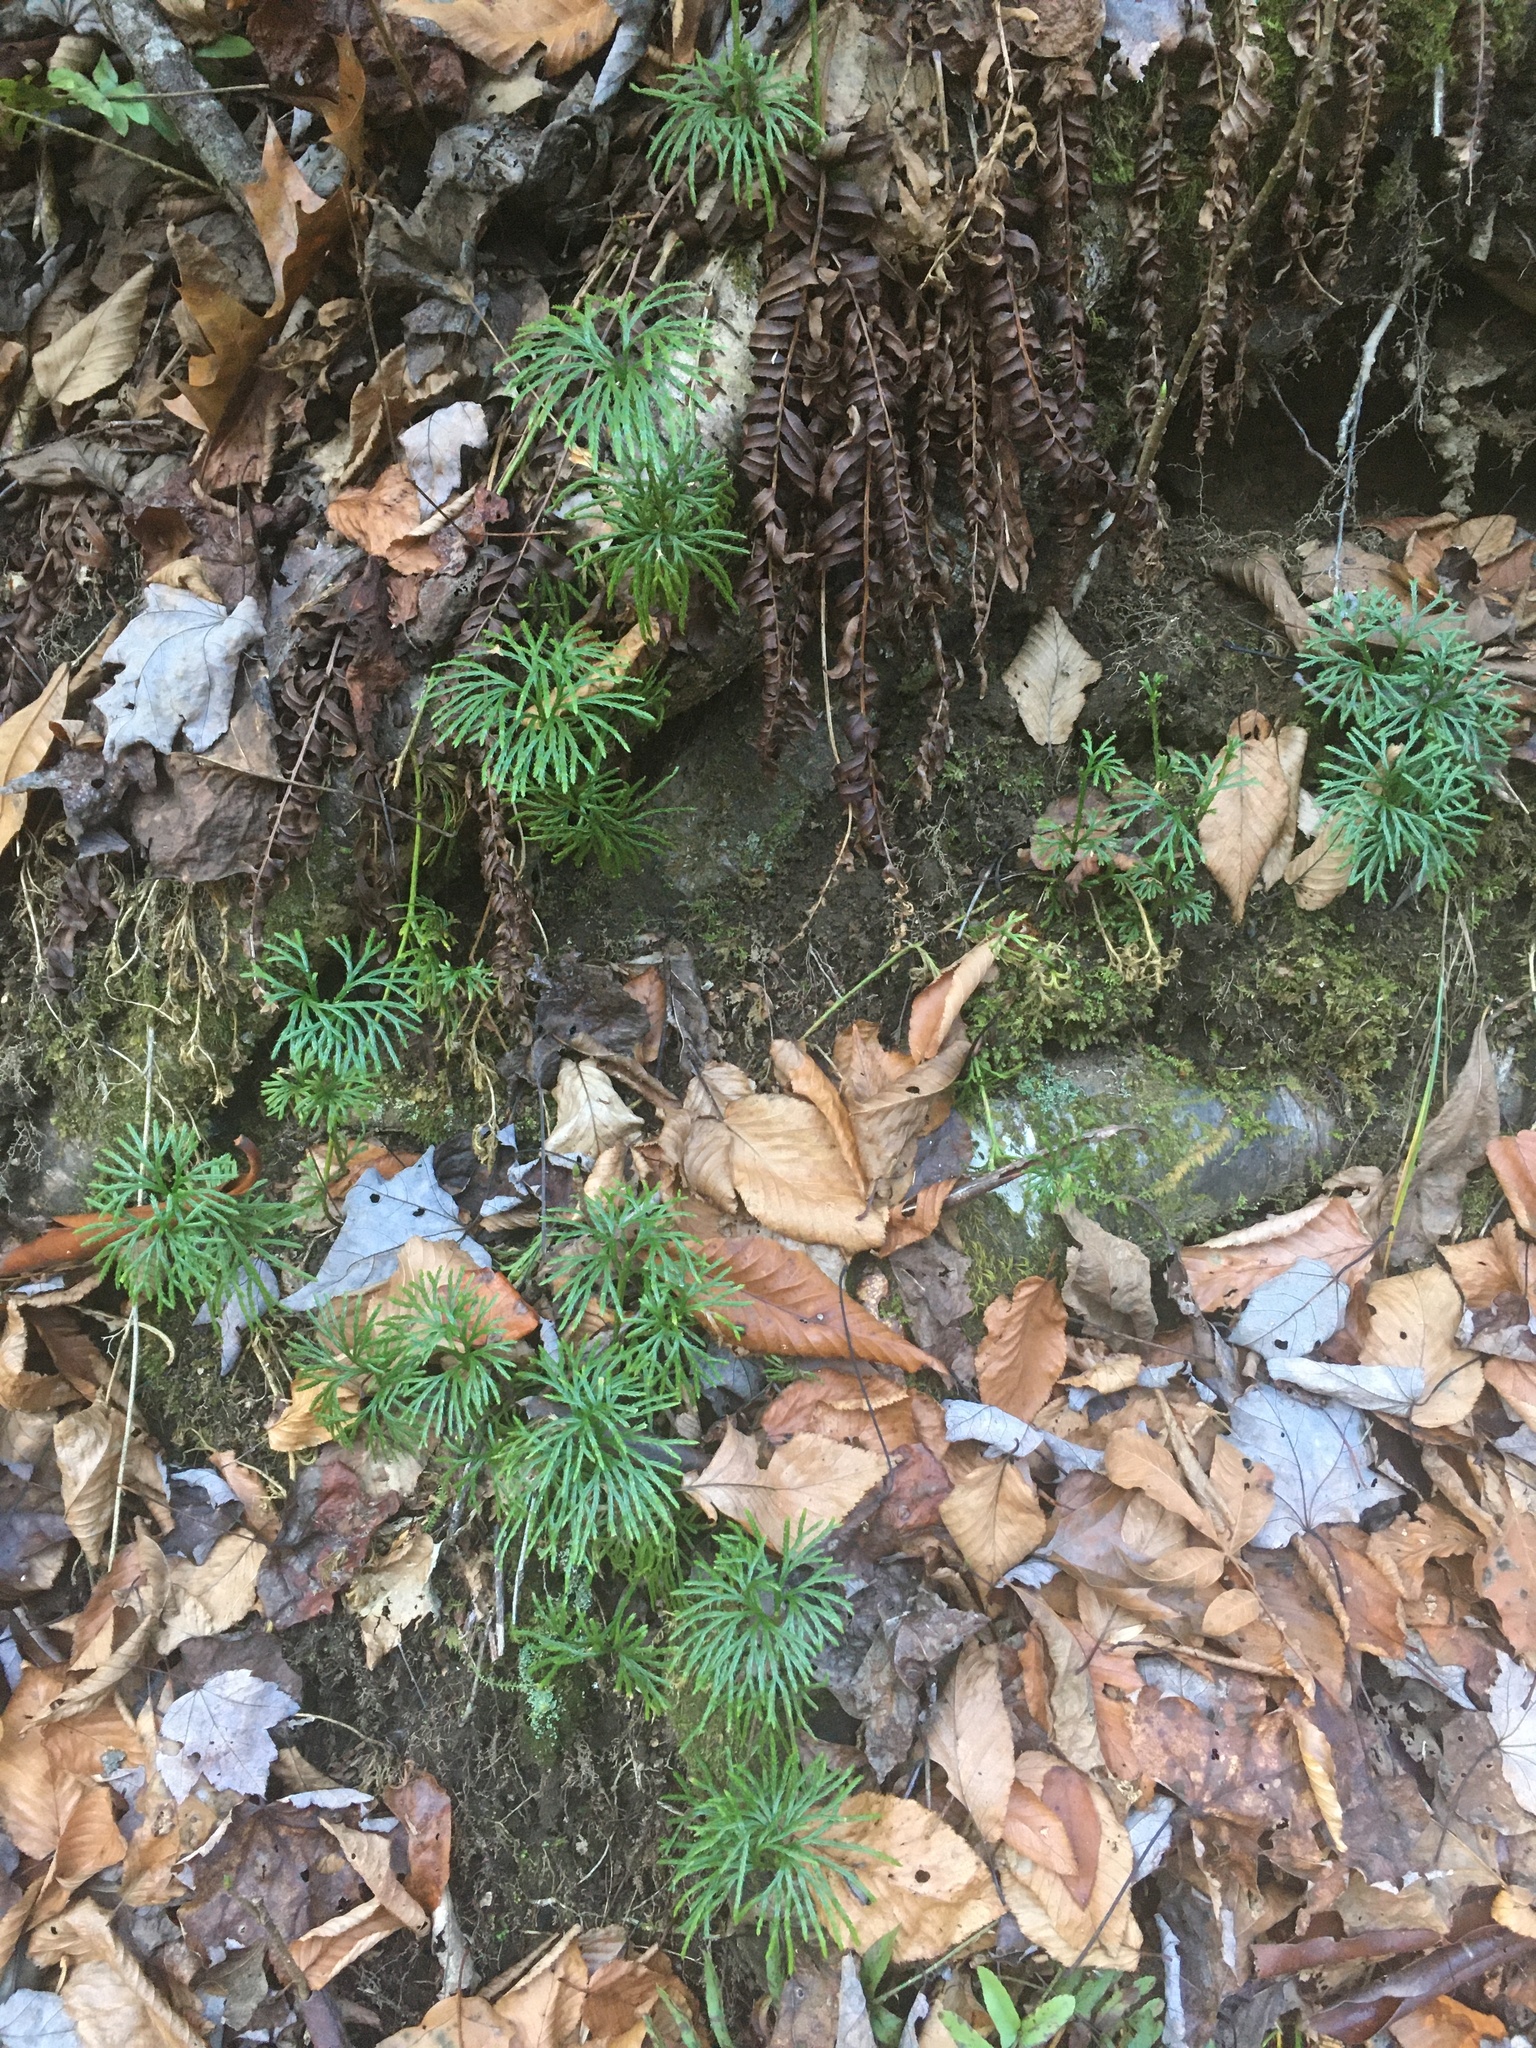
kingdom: Plantae
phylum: Tracheophyta
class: Lycopodiopsida
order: Lycopodiales
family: Lycopodiaceae
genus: Diphasiastrum
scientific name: Diphasiastrum digitatum
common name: Southern running-pine
